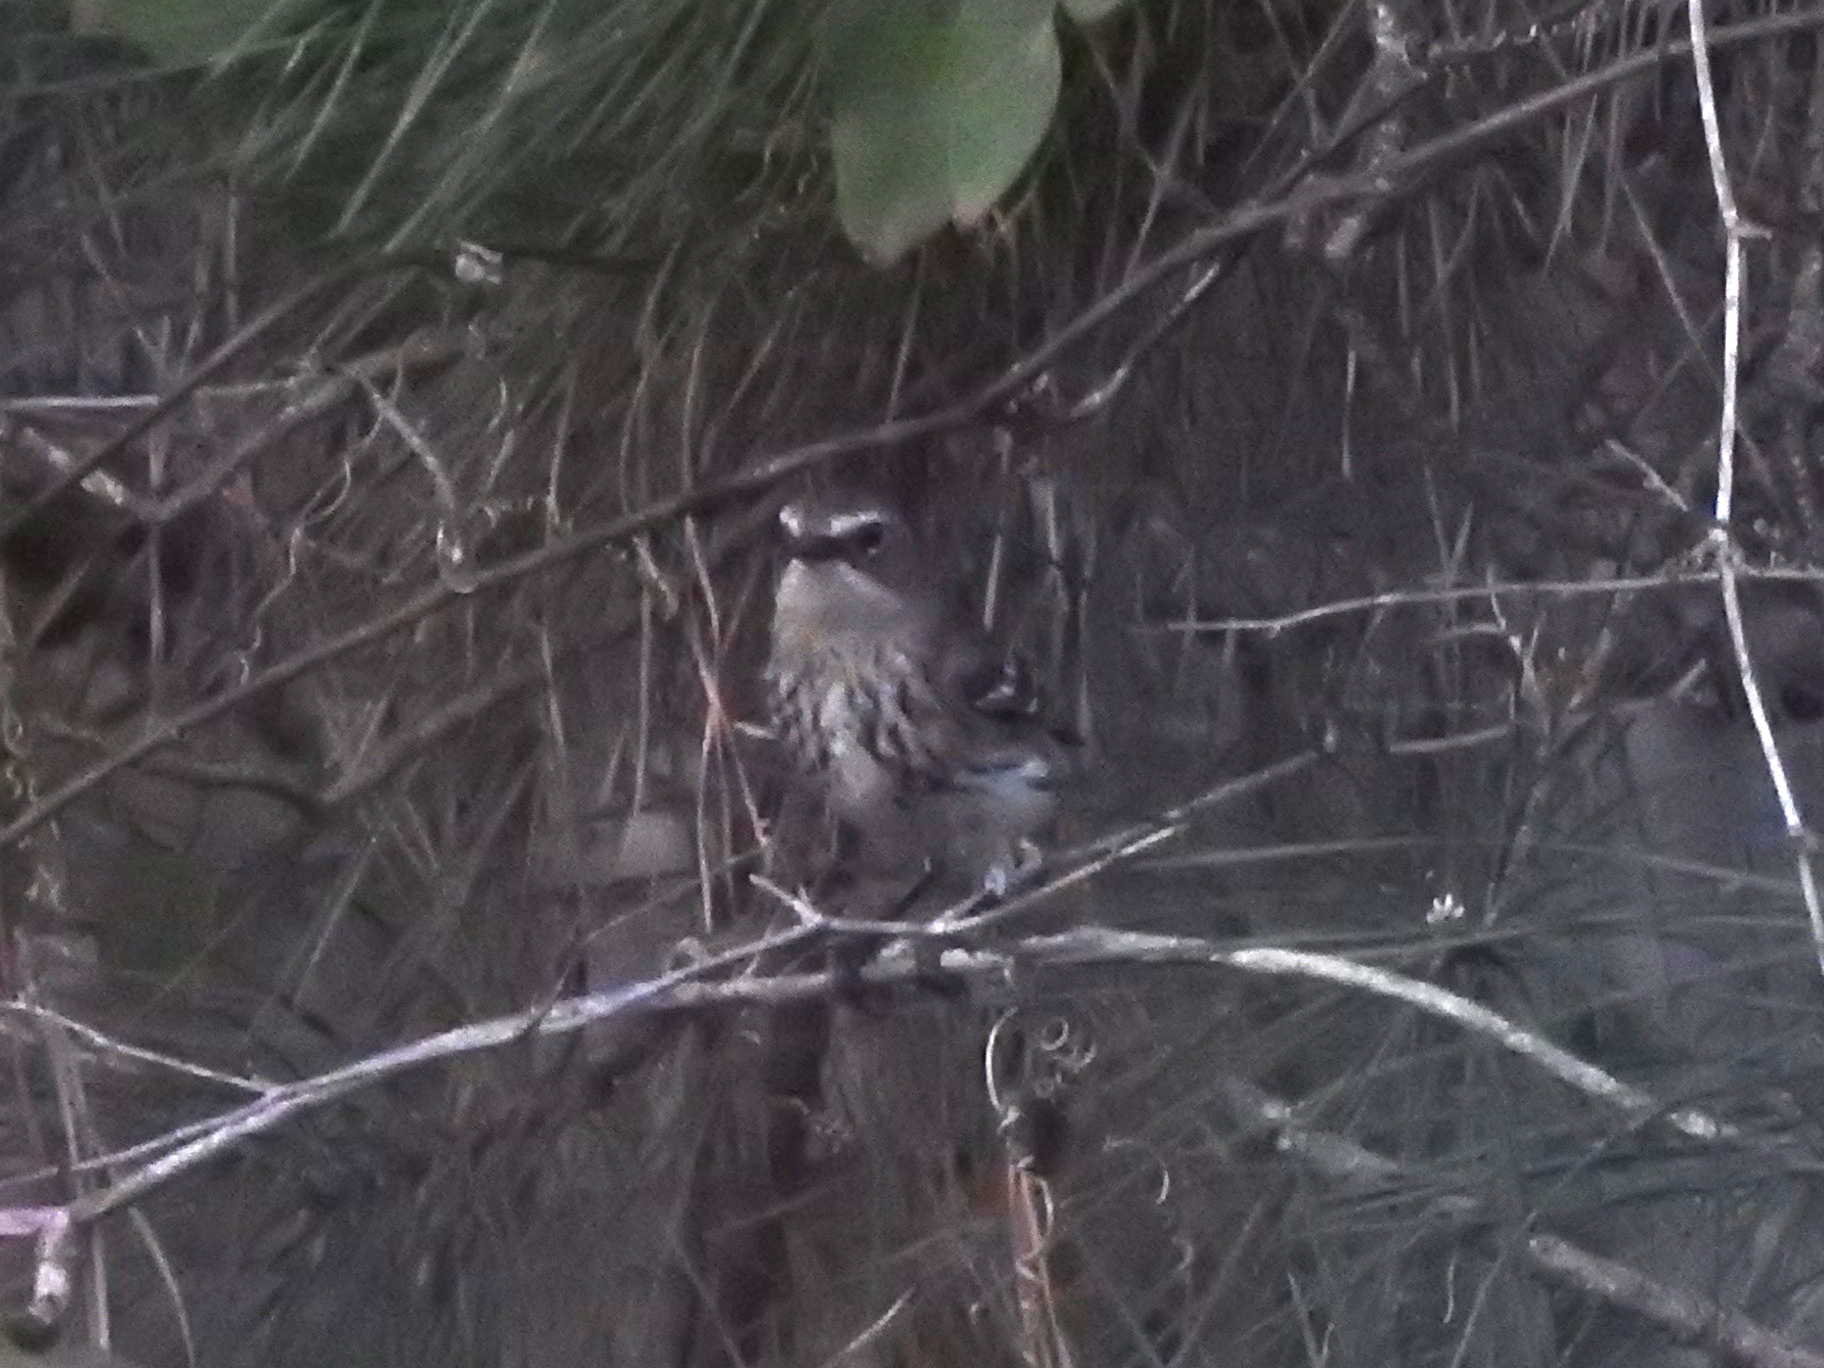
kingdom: Animalia
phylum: Chordata
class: Aves
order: Passeriformes
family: Parulidae
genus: Setophaga
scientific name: Setophaga coronata
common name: Myrtle warbler
